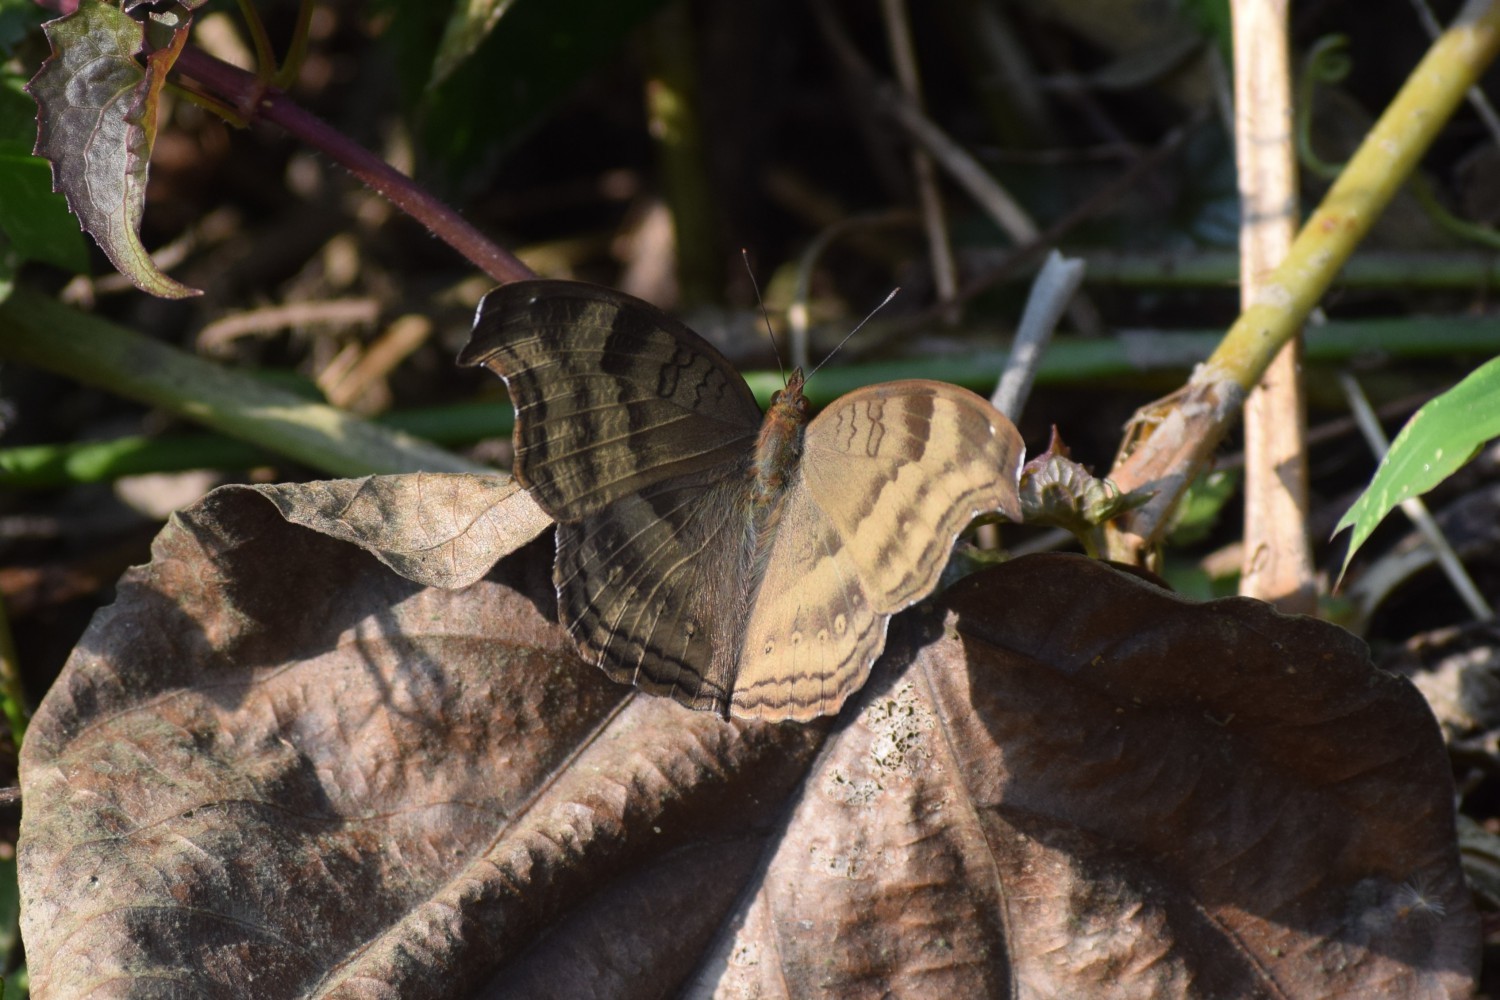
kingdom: Animalia
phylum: Arthropoda
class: Insecta
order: Lepidoptera
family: Nymphalidae
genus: Junonia
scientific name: Junonia iphita
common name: Chocolate pansy
